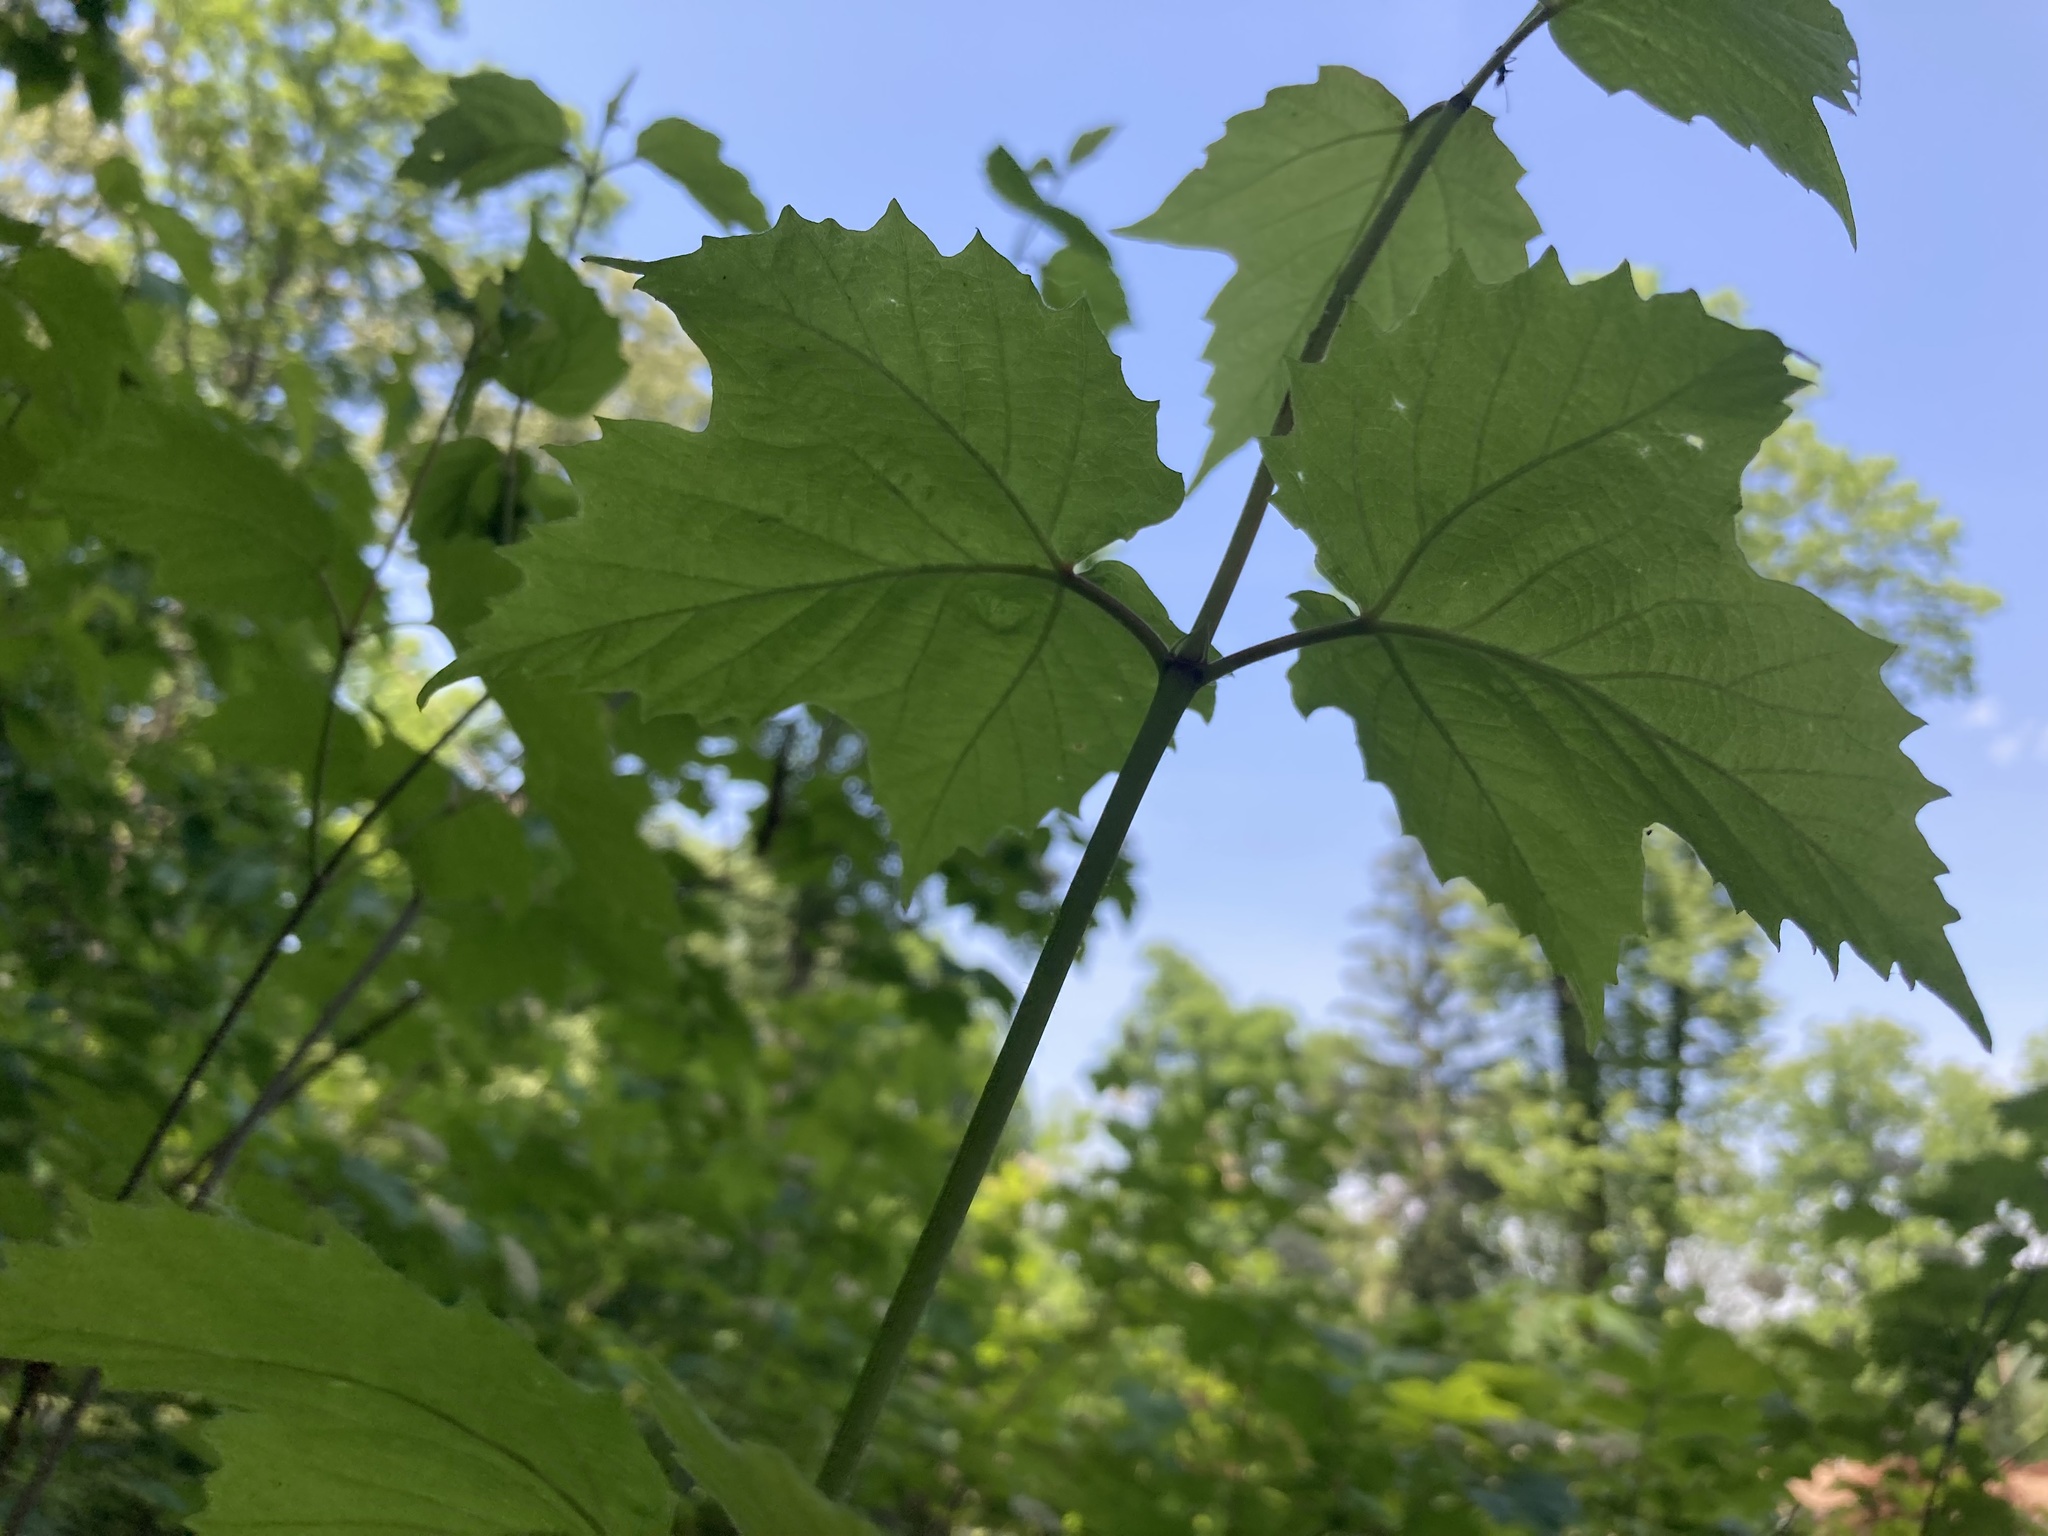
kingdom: Plantae
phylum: Tracheophyta
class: Magnoliopsida
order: Dipsacales
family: Viburnaceae
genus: Viburnum
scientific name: Viburnum acerifolium
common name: Dockmackie
